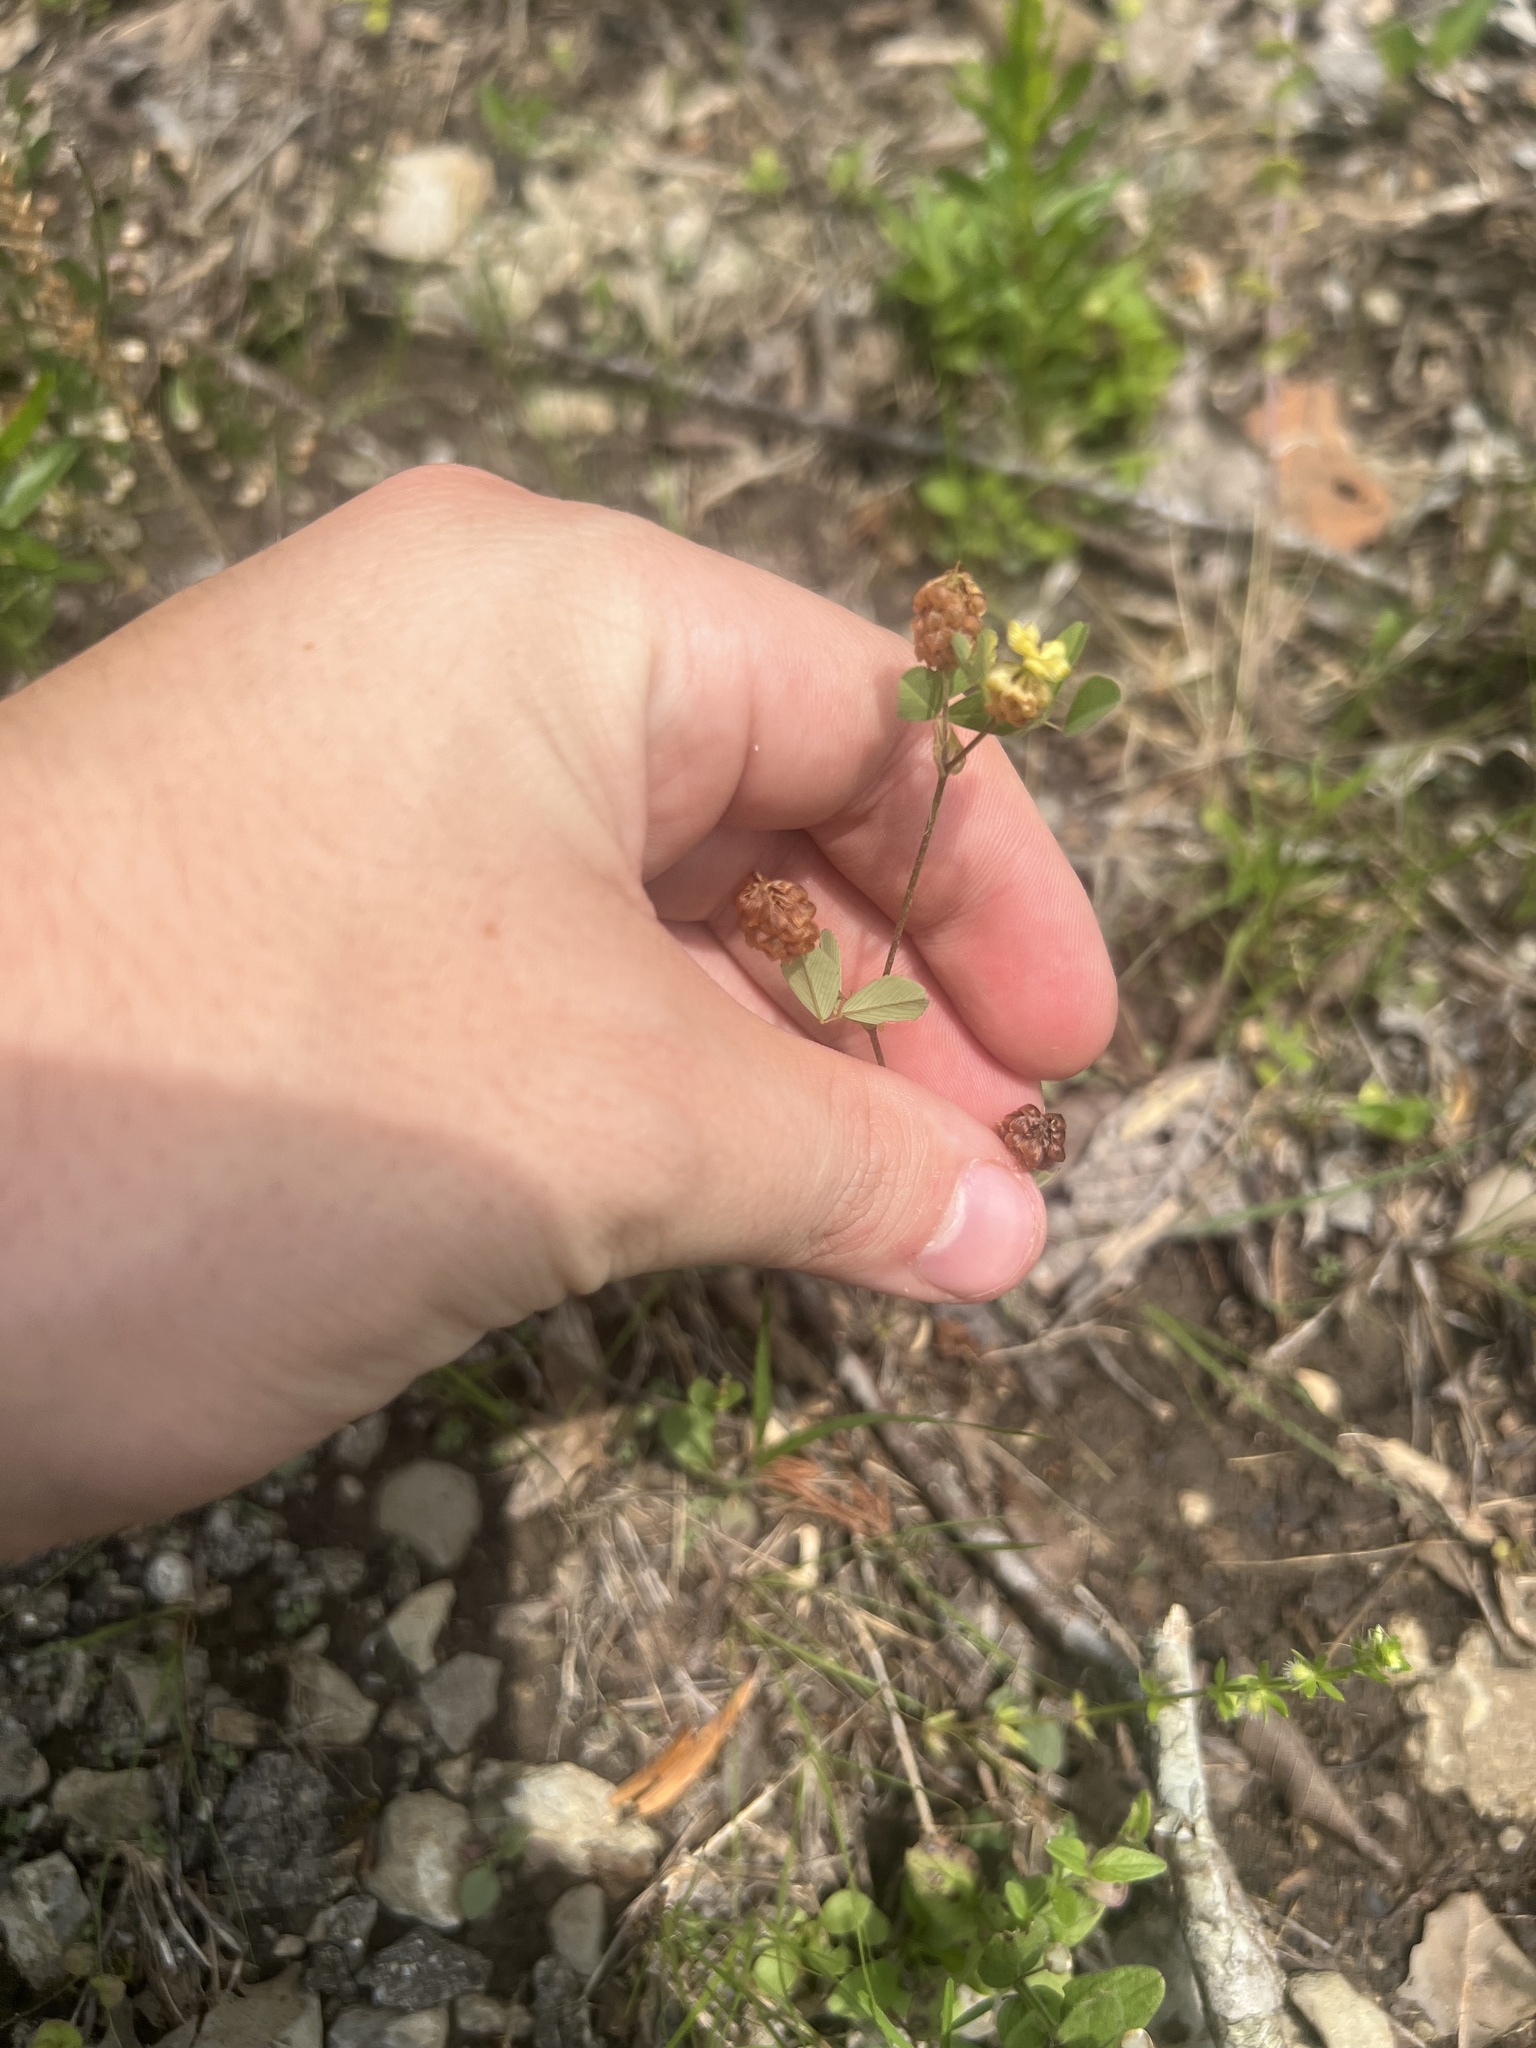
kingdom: Plantae
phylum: Tracheophyta
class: Magnoliopsida
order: Fabales
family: Fabaceae
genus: Trifolium
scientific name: Trifolium campestre
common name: Field clover
